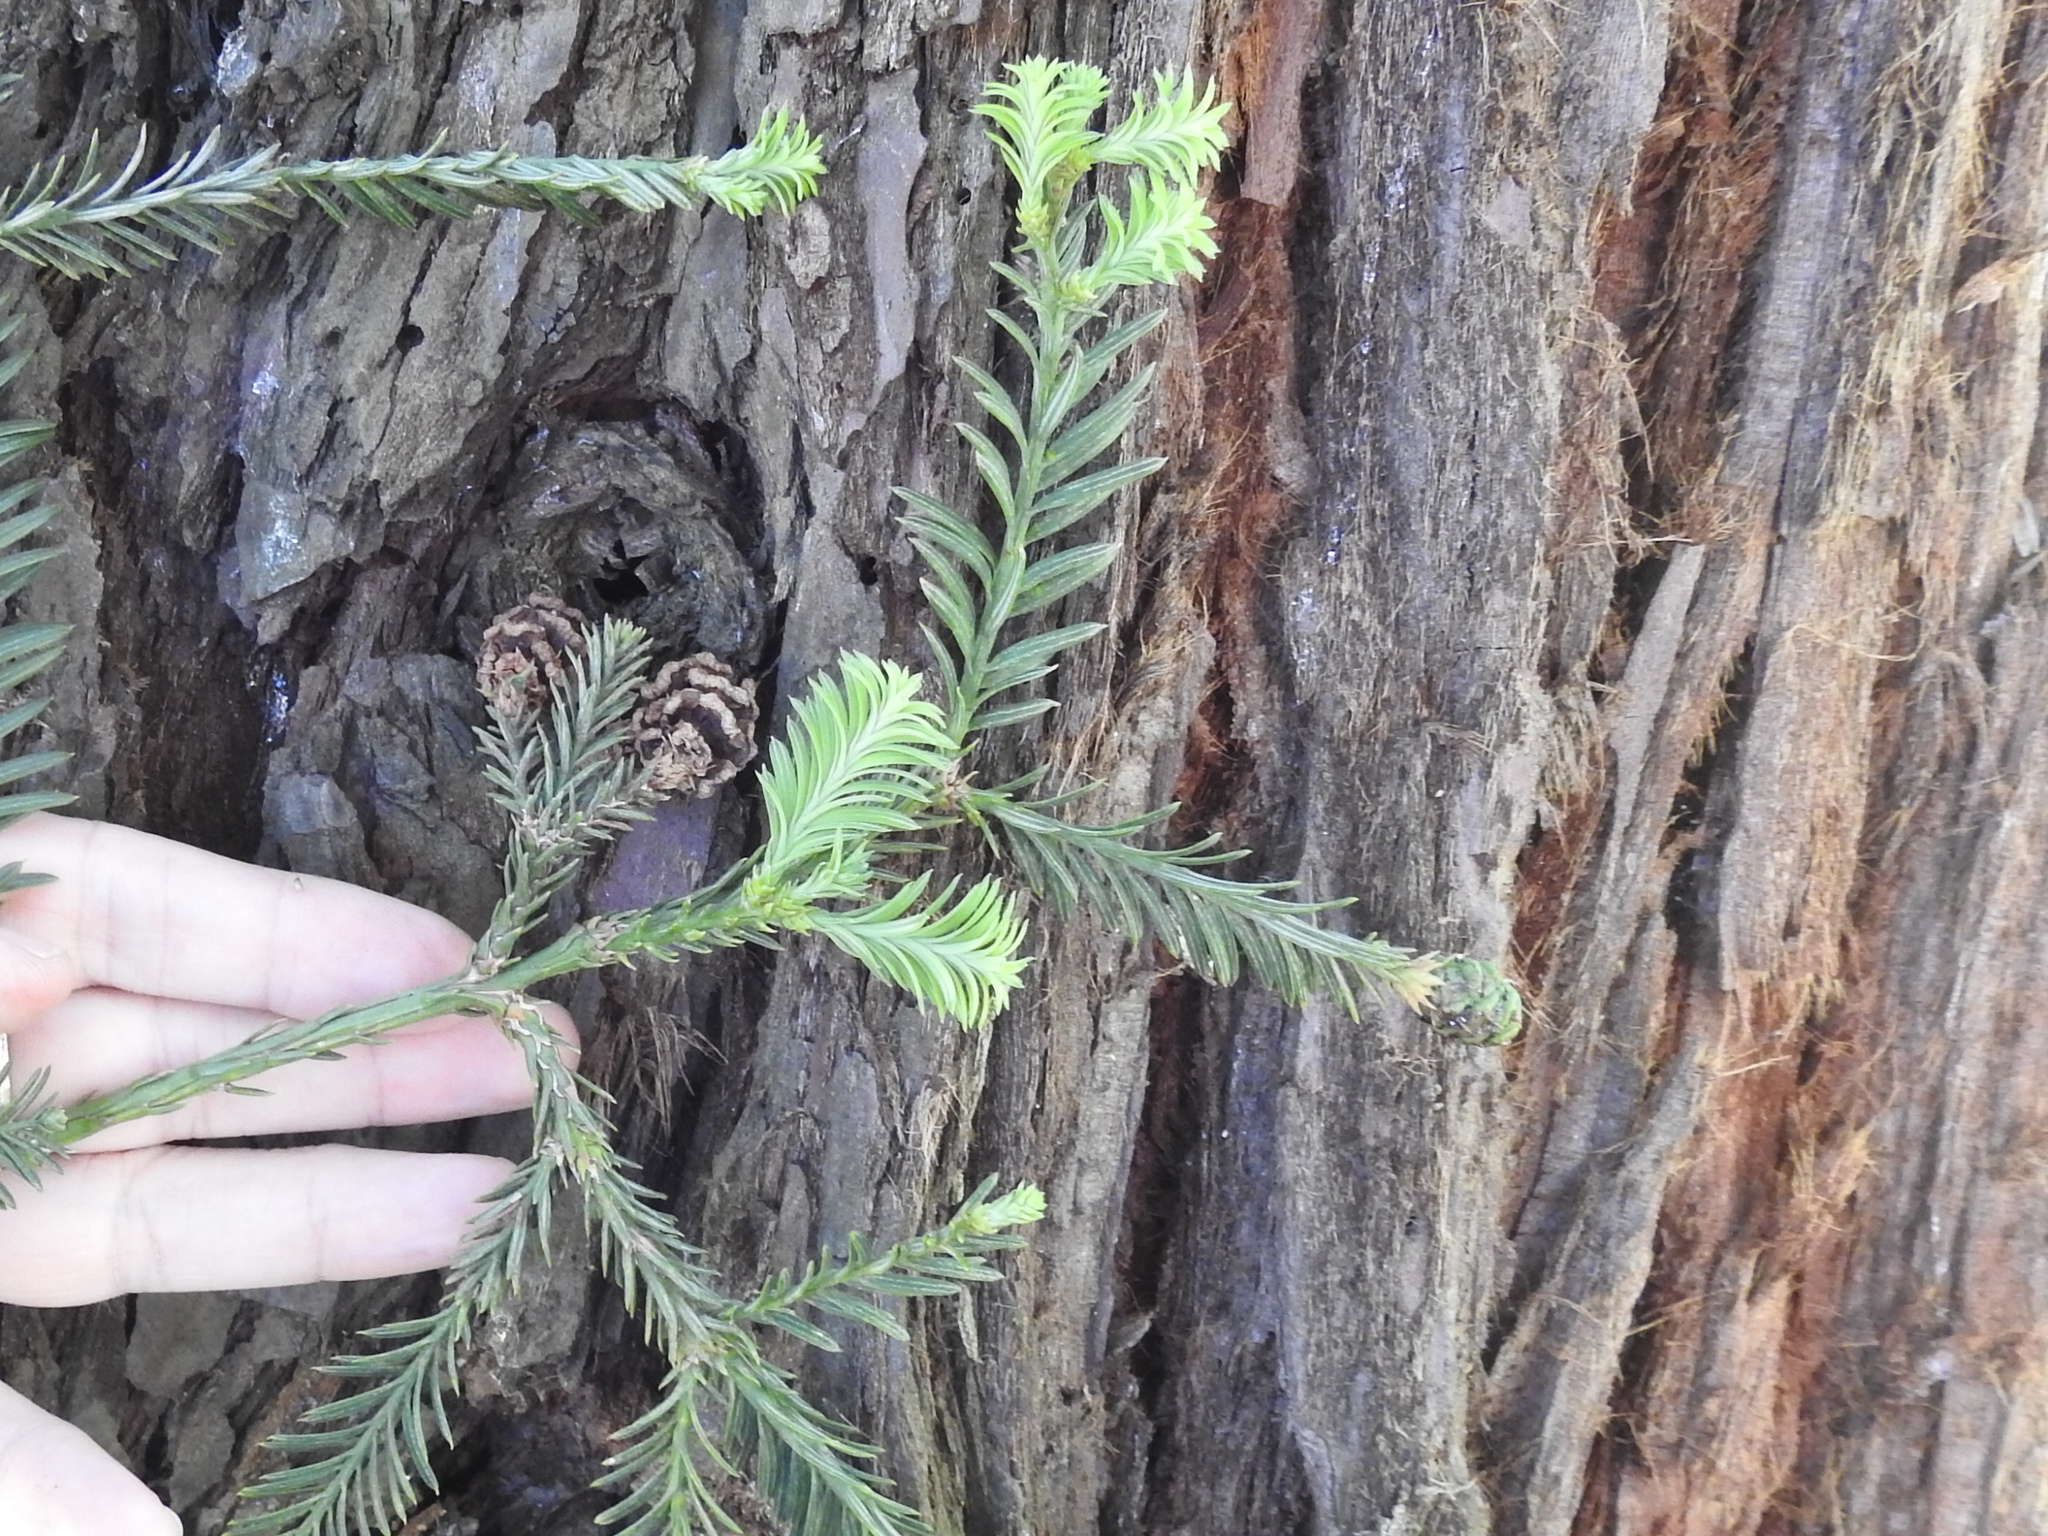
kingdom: Plantae
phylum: Tracheophyta
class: Pinopsida
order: Pinales
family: Cupressaceae
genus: Sequoia
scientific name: Sequoia sempervirens
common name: Coast redwood
